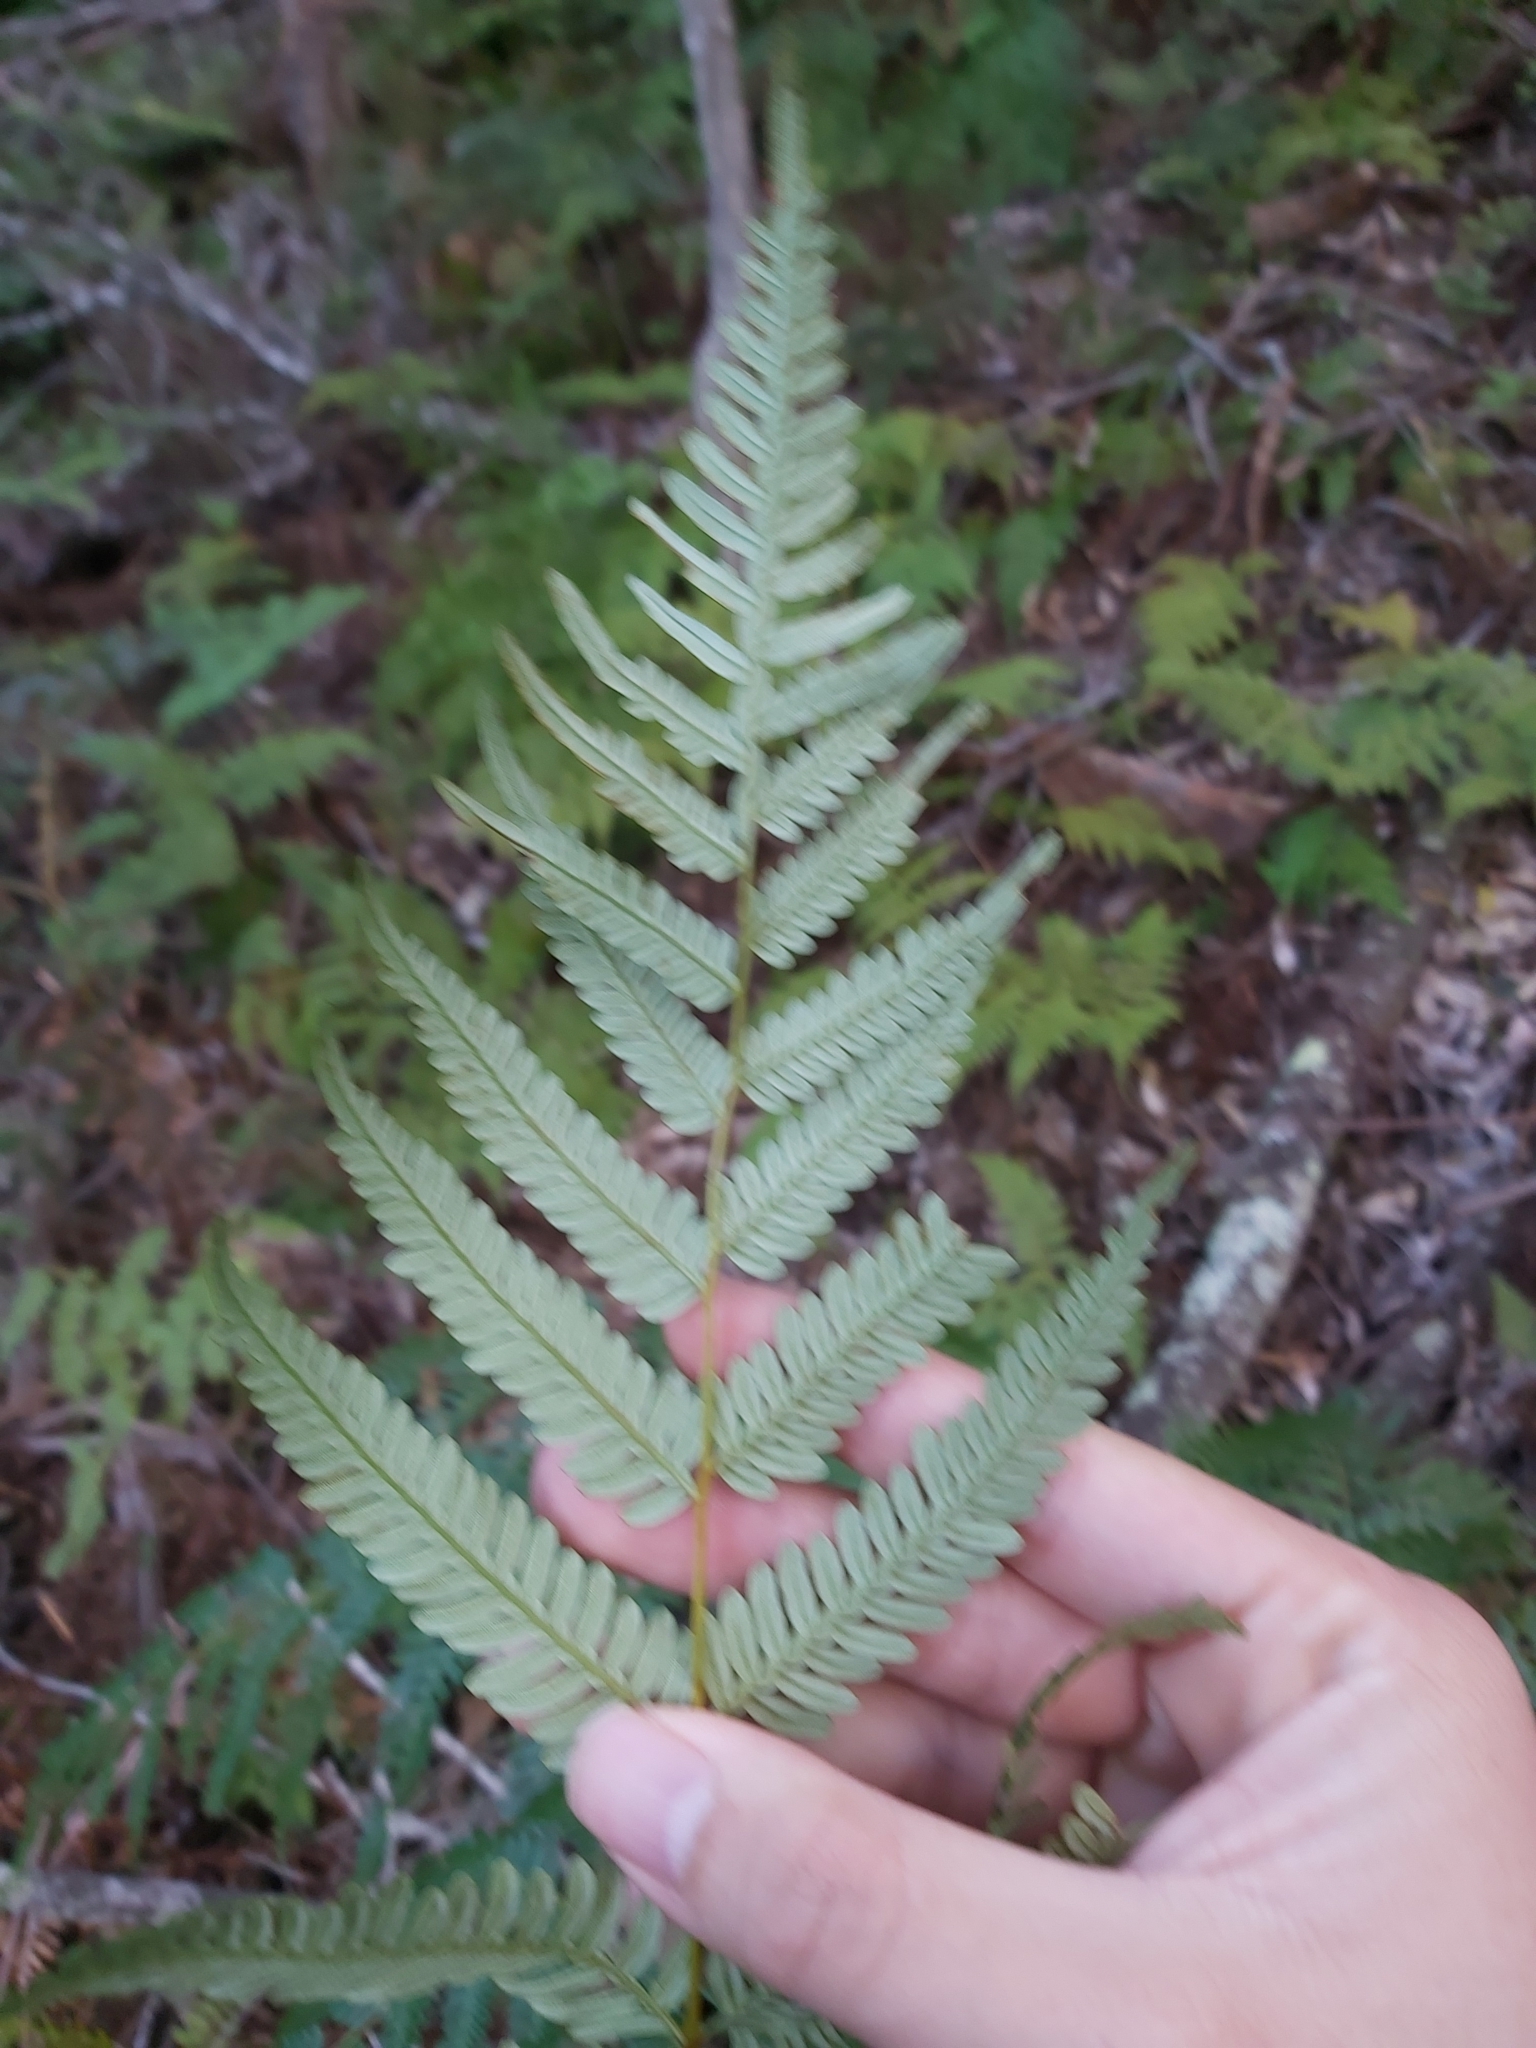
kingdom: Plantae
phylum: Tracheophyta
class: Polypodiopsida
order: Polypodiales
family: Dennstaedtiaceae
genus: Pteridium
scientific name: Pteridium esculentum
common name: Bracken fern
